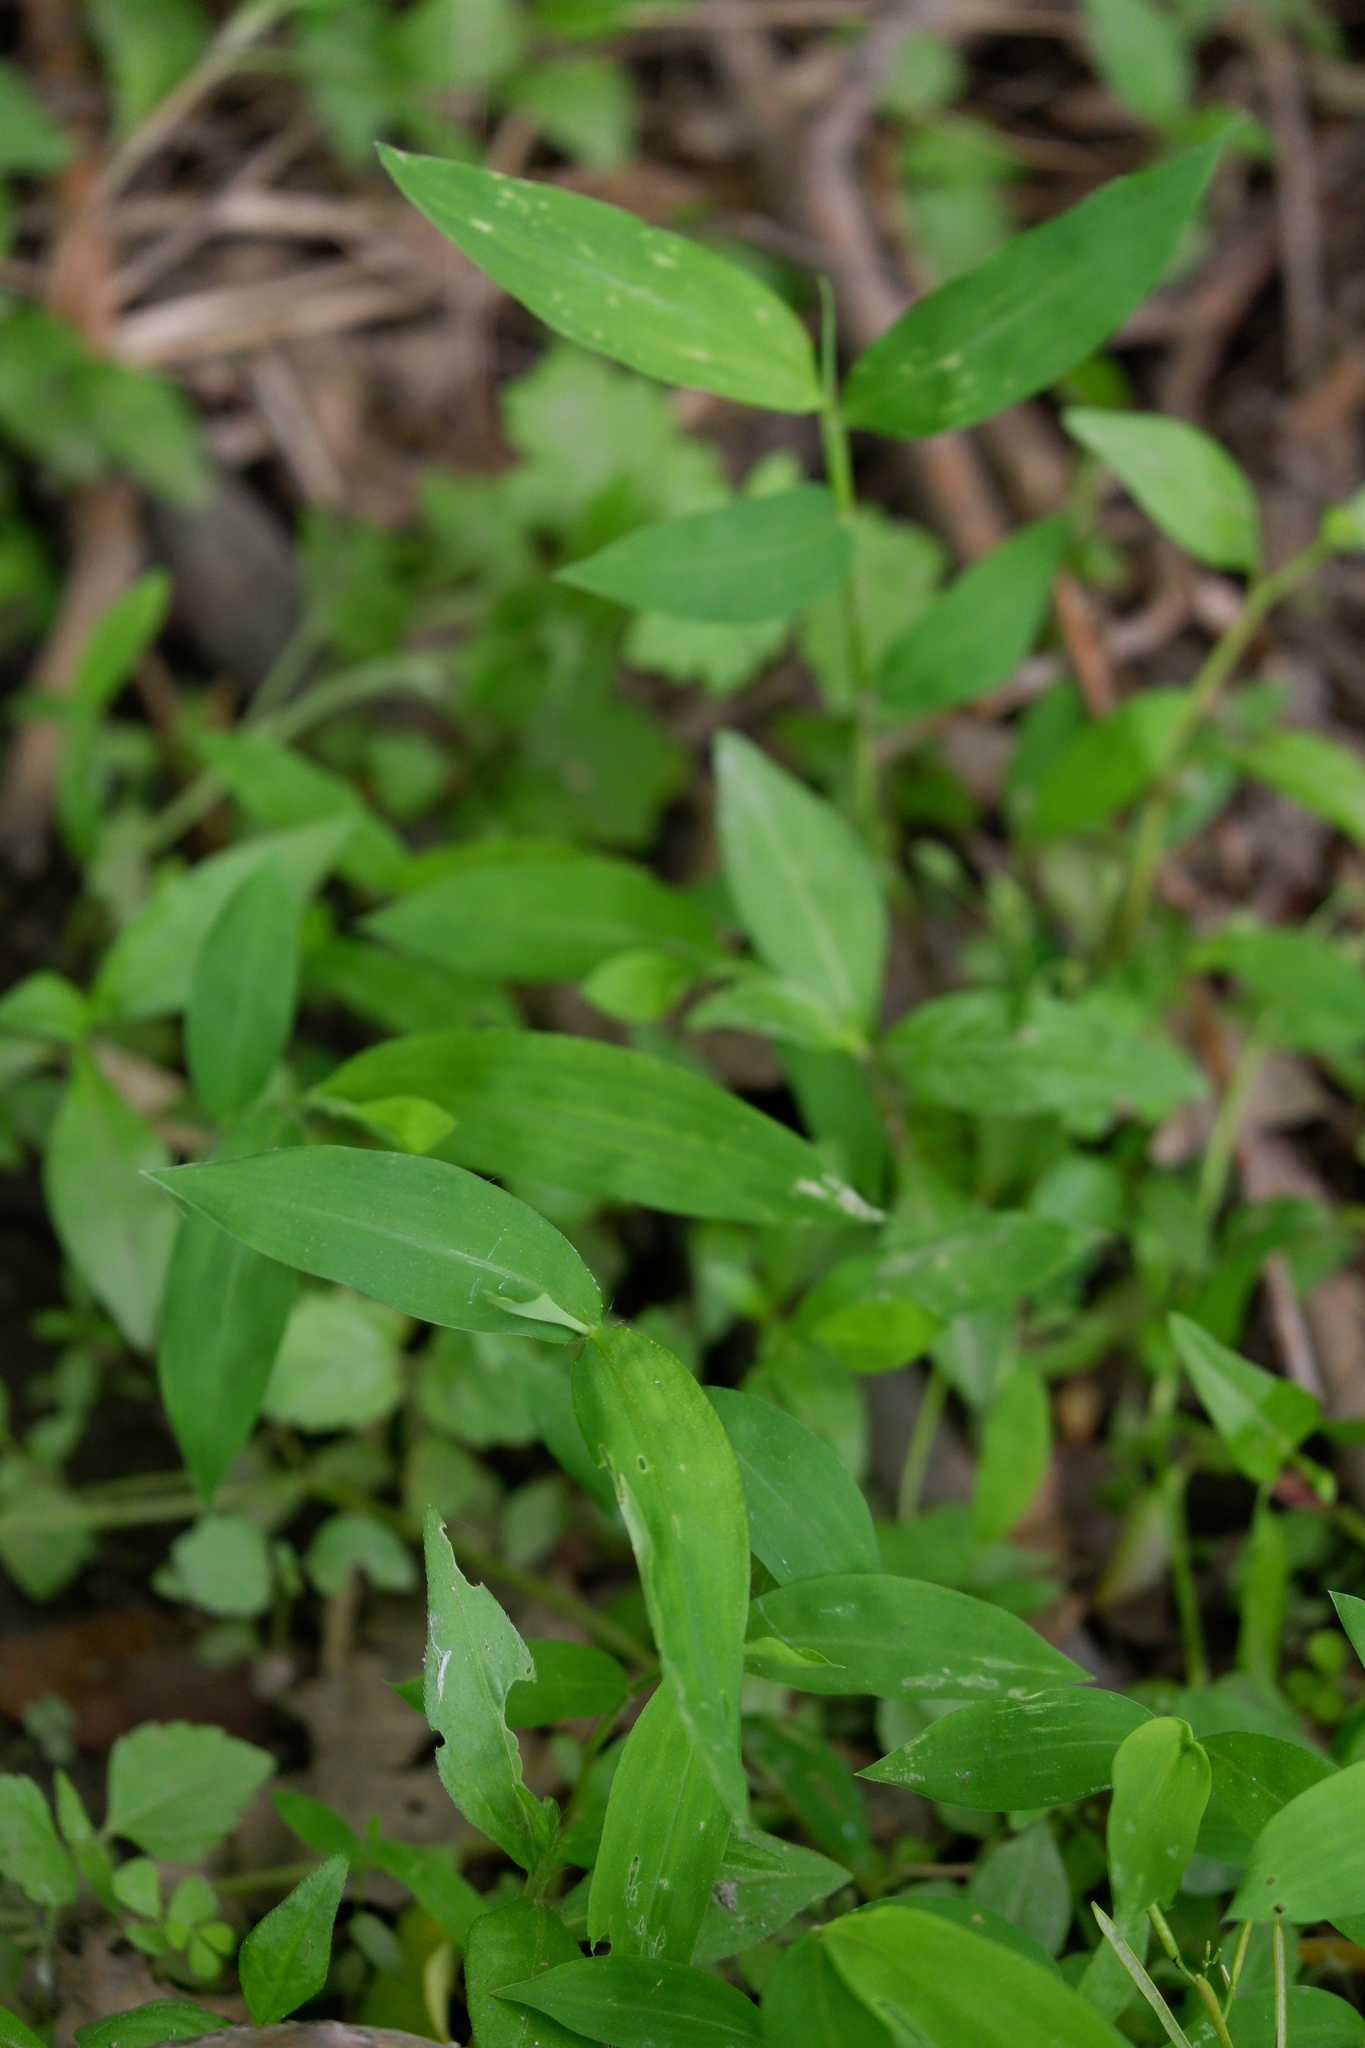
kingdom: Plantae
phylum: Tracheophyta
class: Liliopsida
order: Poales
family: Poaceae
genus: Microstegium
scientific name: Microstegium vimineum
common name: Japanese stiltgrass
